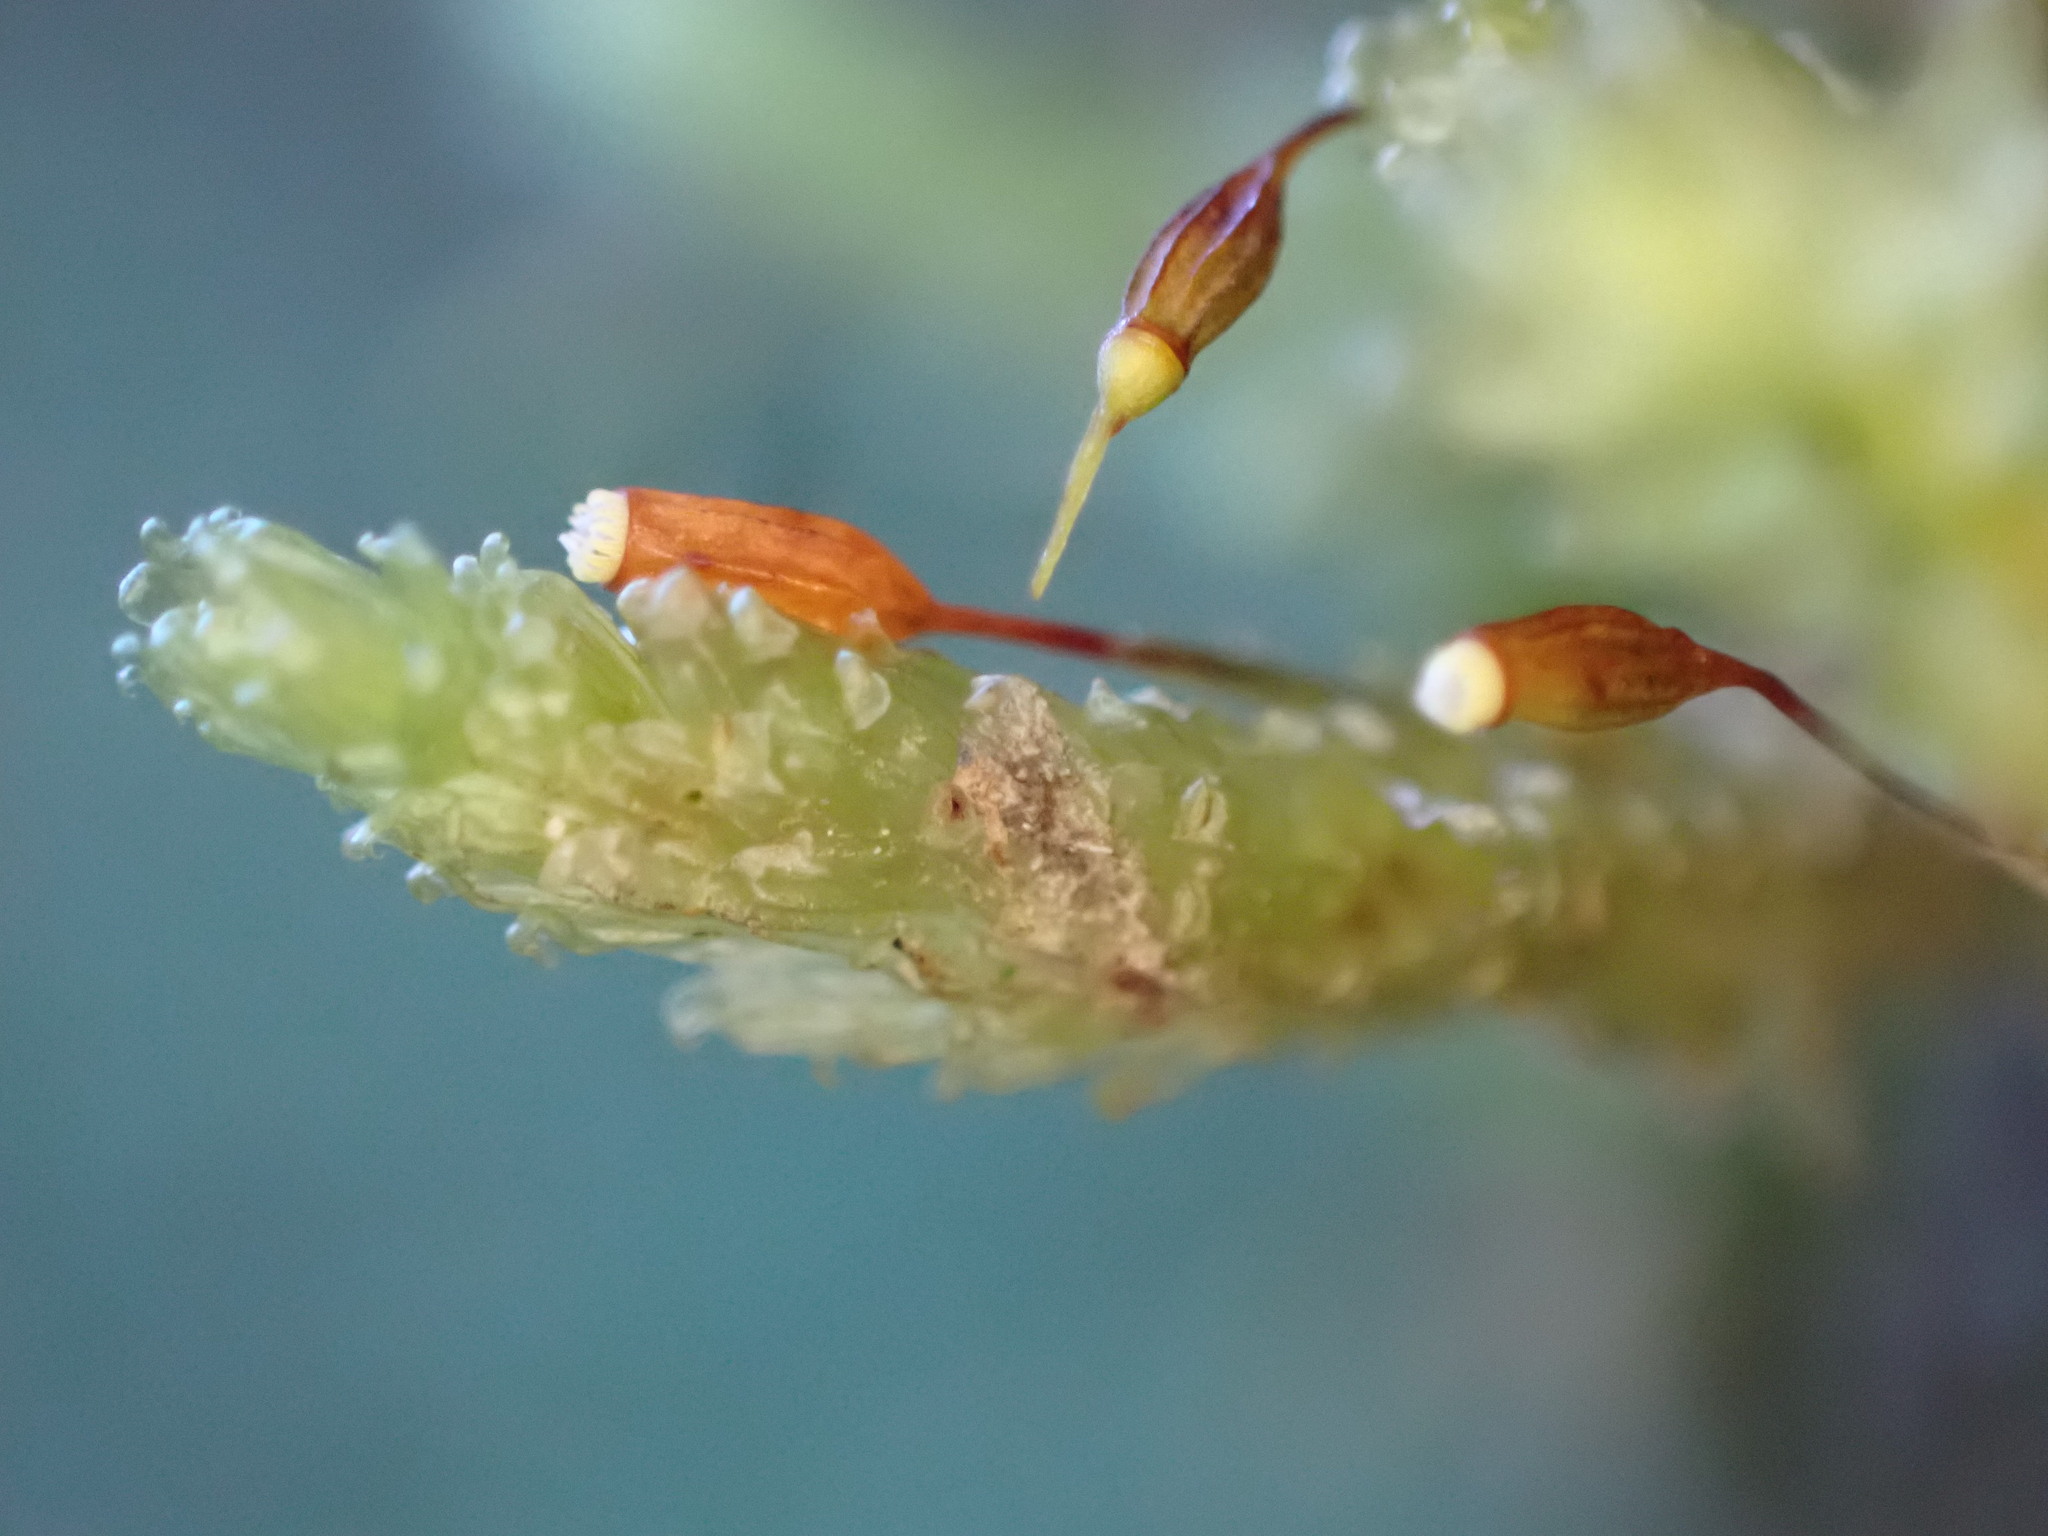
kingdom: Plantae
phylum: Bryophyta
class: Bryopsida
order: Ptychomniales
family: Ptychomniaceae
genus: Cladomnion
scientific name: Cladomnion ericoides
